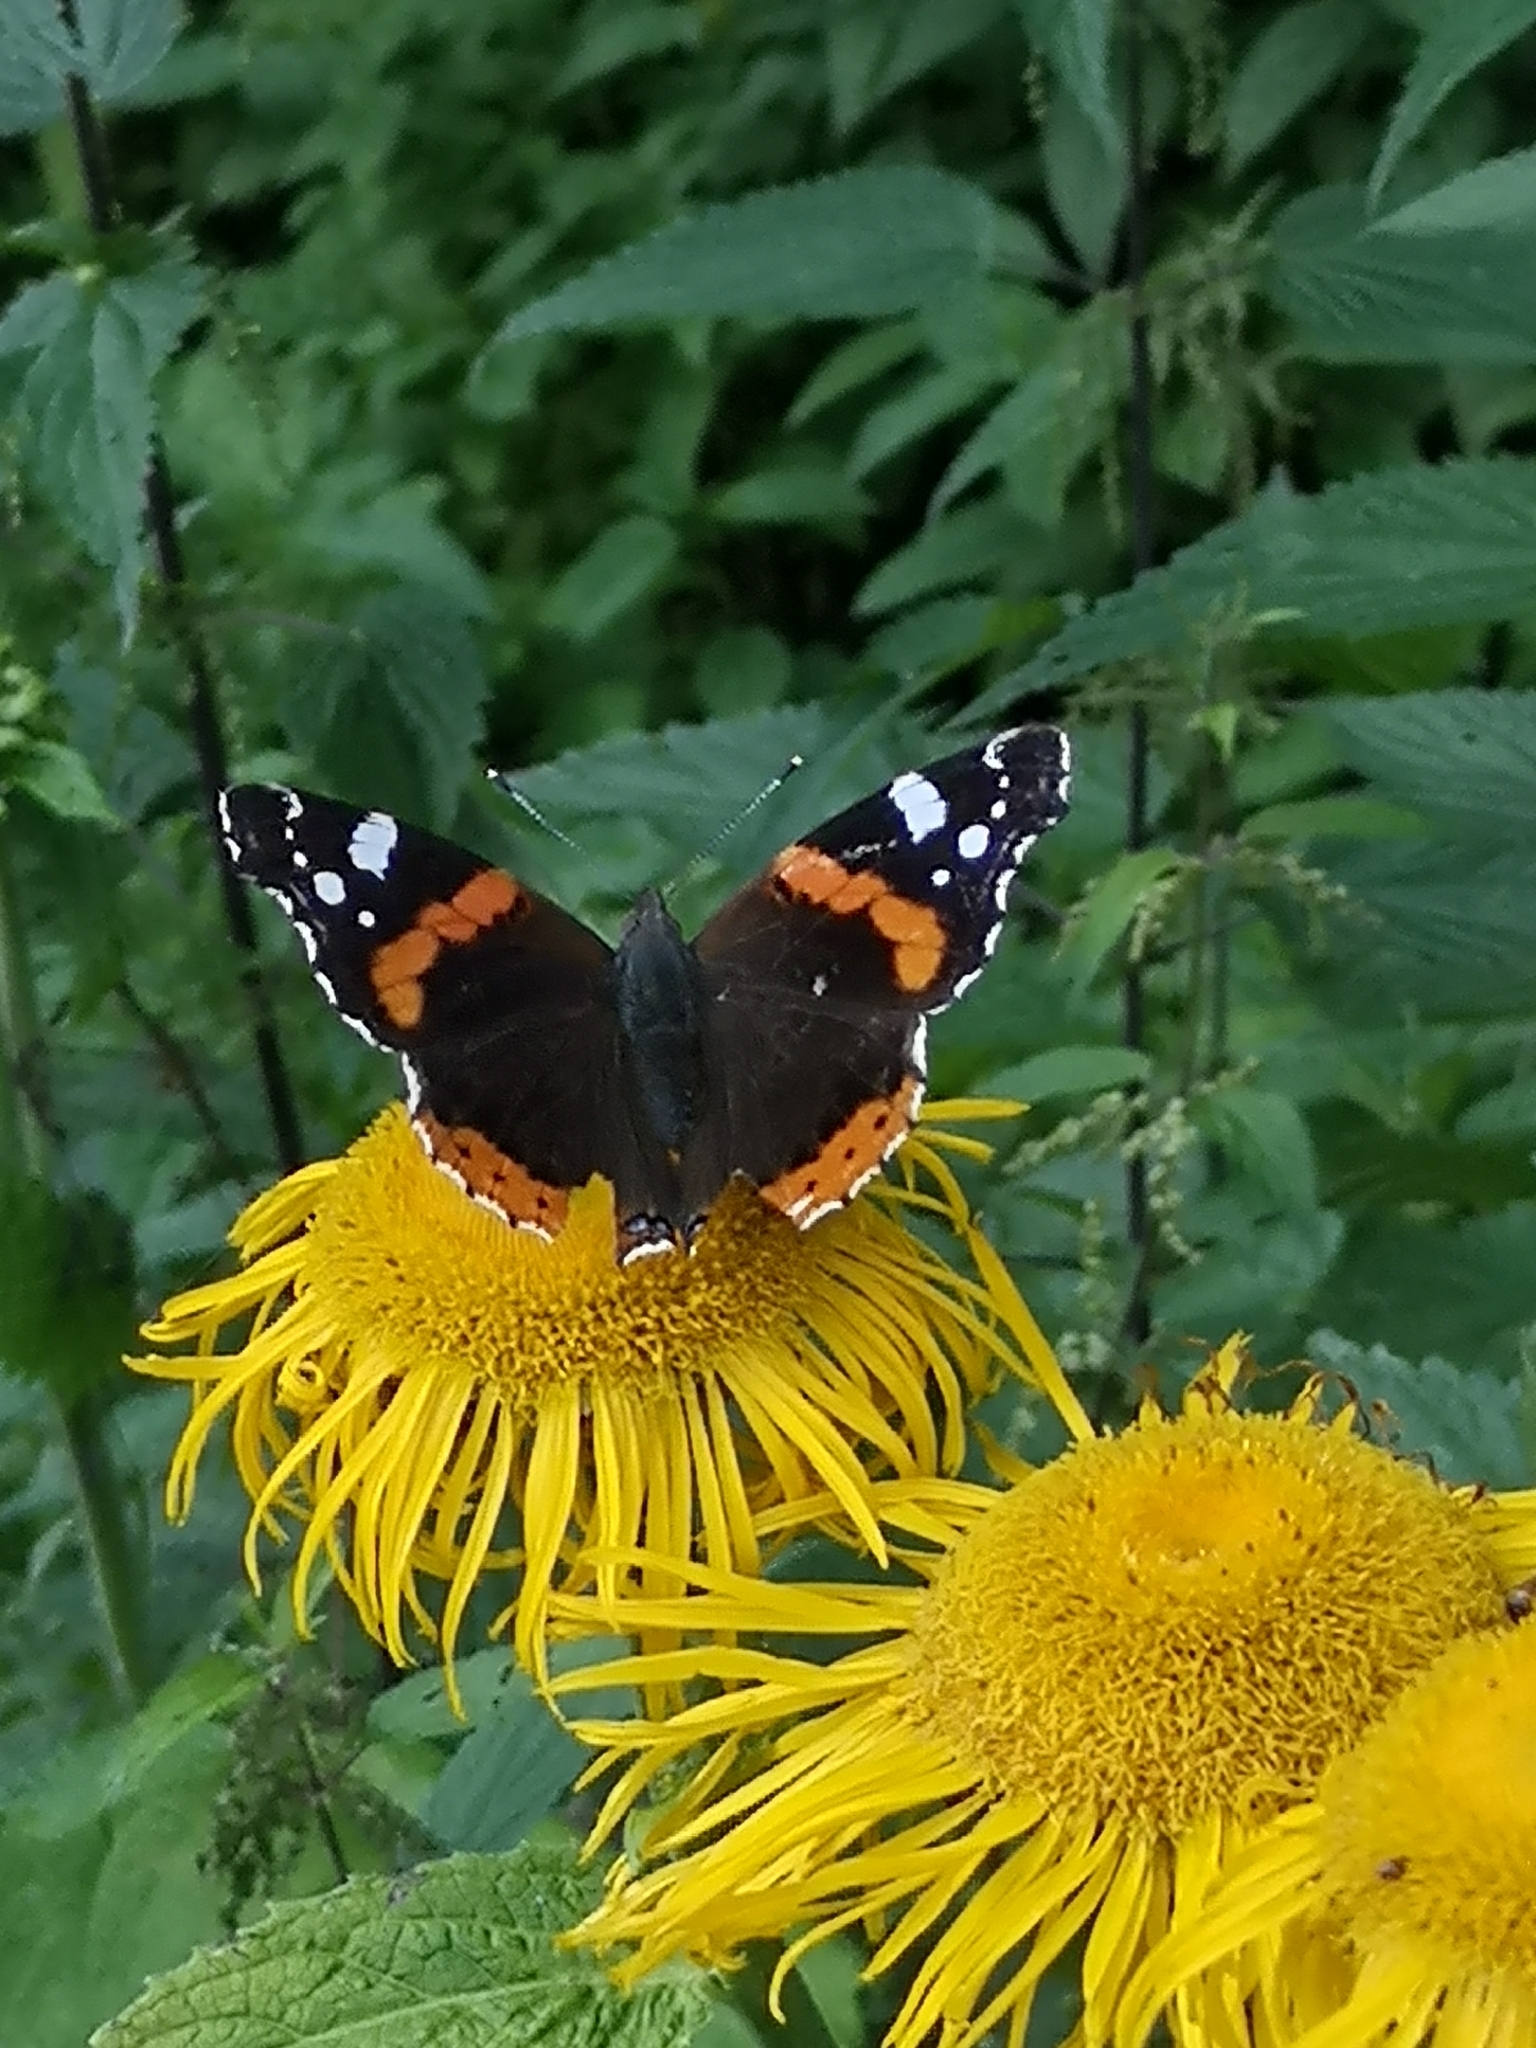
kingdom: Animalia
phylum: Arthropoda
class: Insecta
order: Lepidoptera
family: Nymphalidae
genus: Vanessa
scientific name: Vanessa atalanta
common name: Red admiral
